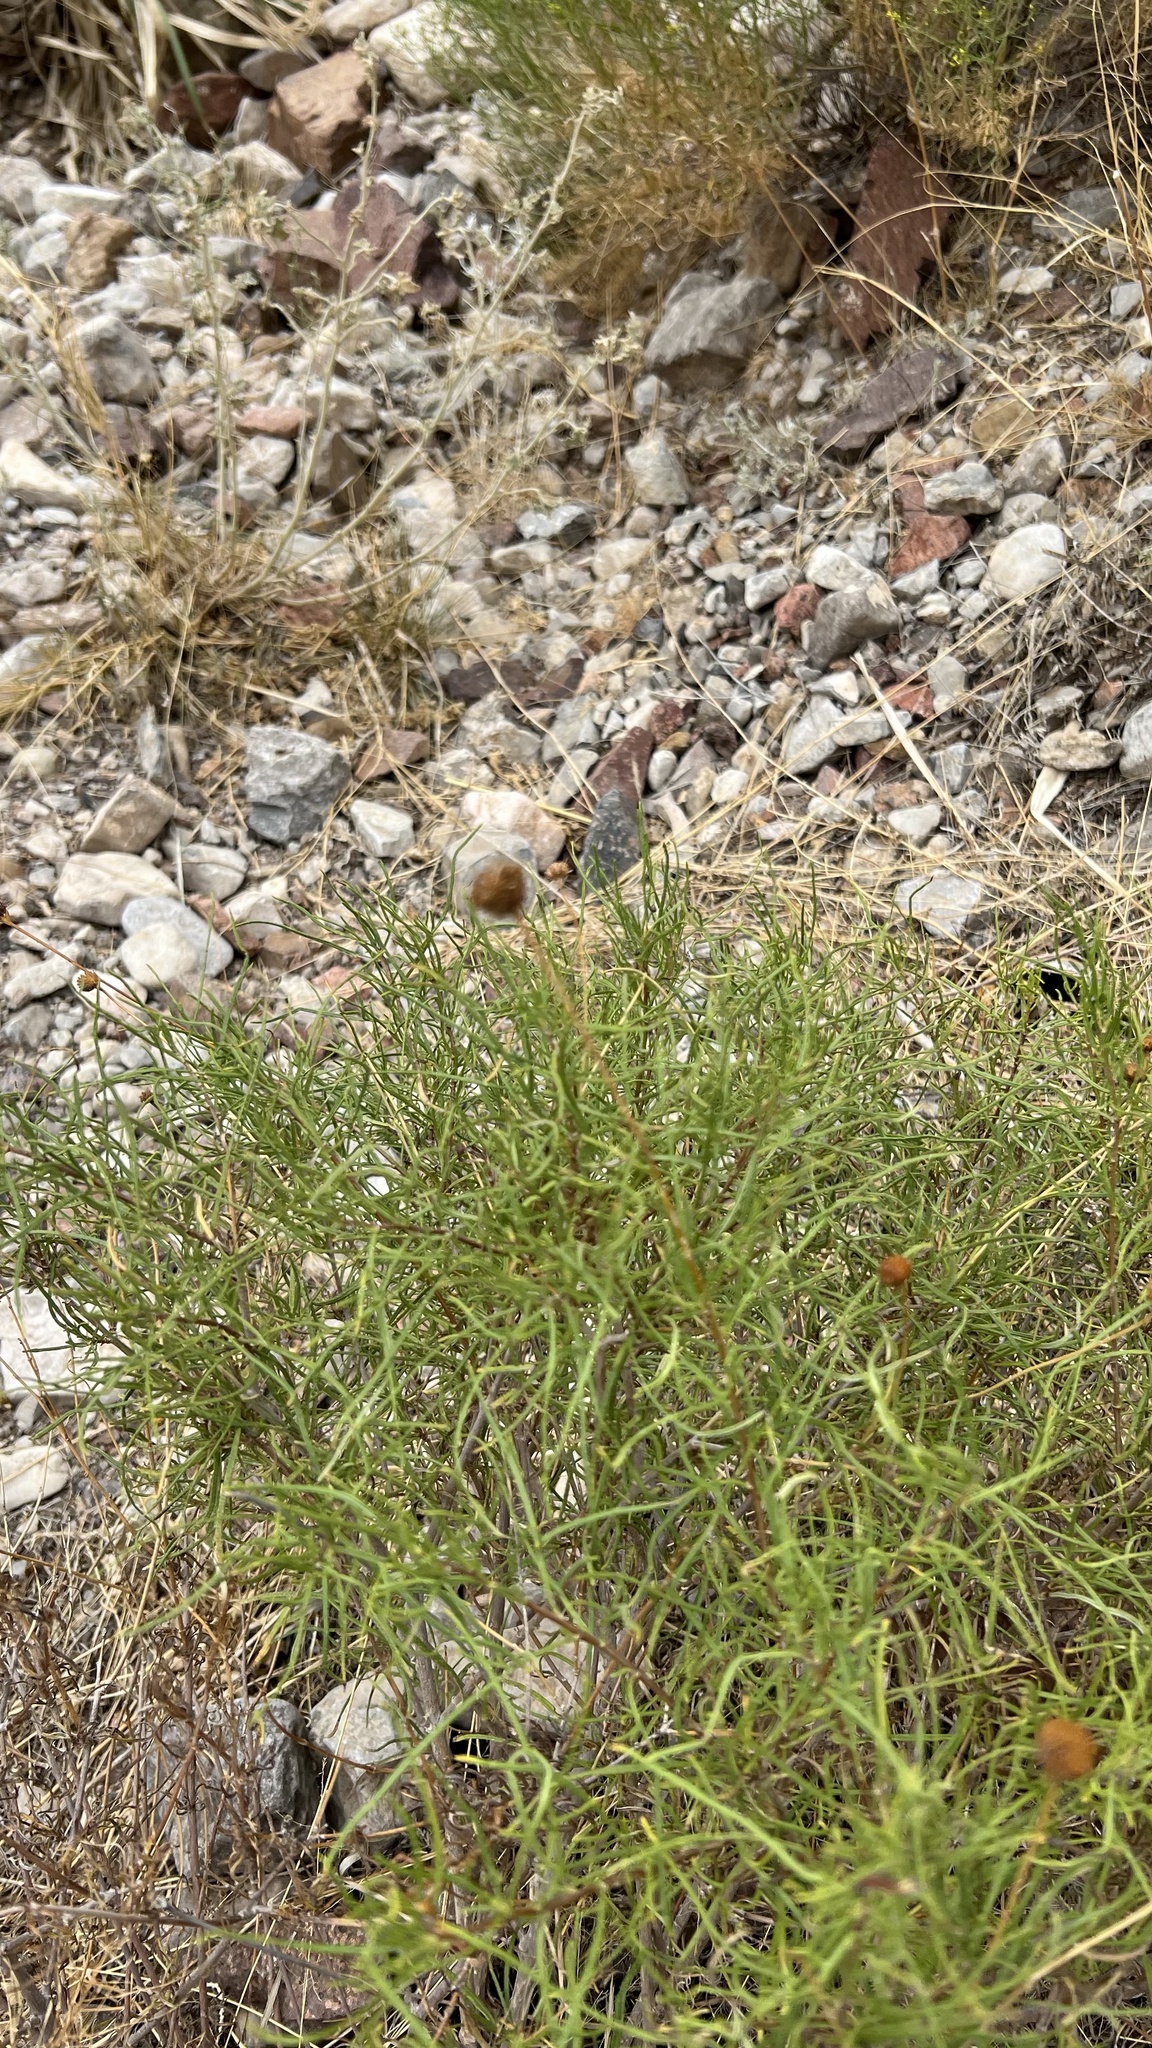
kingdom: Plantae
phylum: Tracheophyta
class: Magnoliopsida
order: Asterales
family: Asteraceae
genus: Sidneya
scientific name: Sidneya tenuifolia
